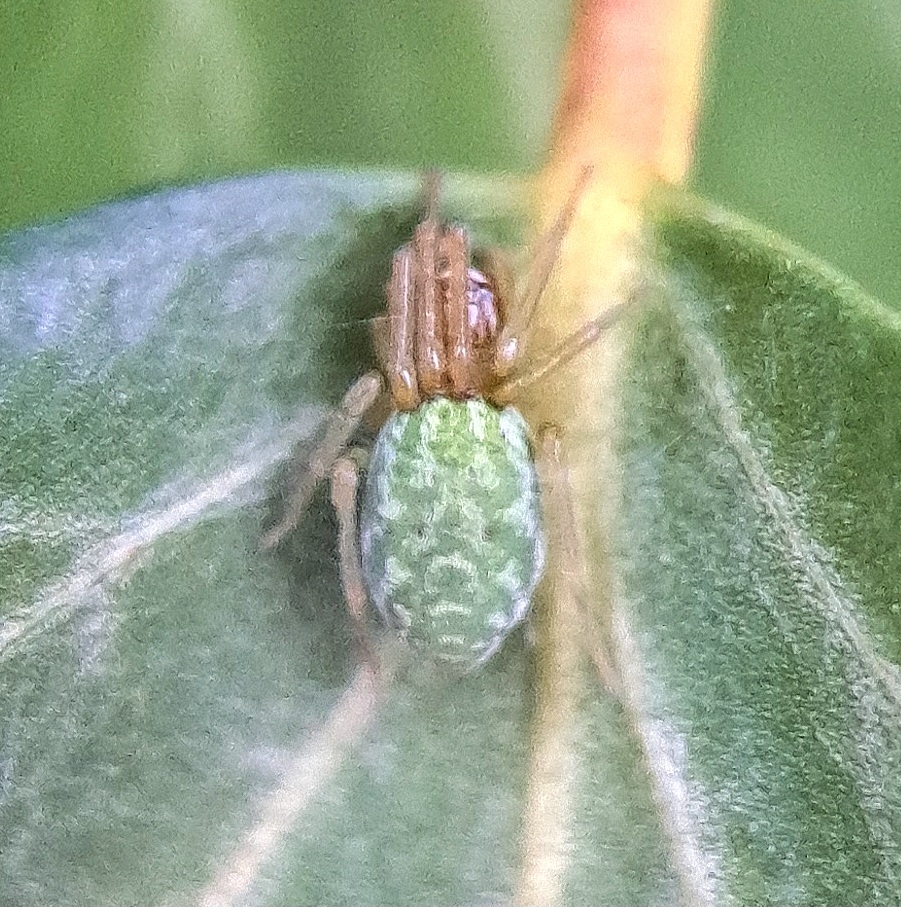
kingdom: Animalia
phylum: Arthropoda
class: Arachnida
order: Araneae
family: Dictynidae
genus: Nigma
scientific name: Nigma walckenaeri
